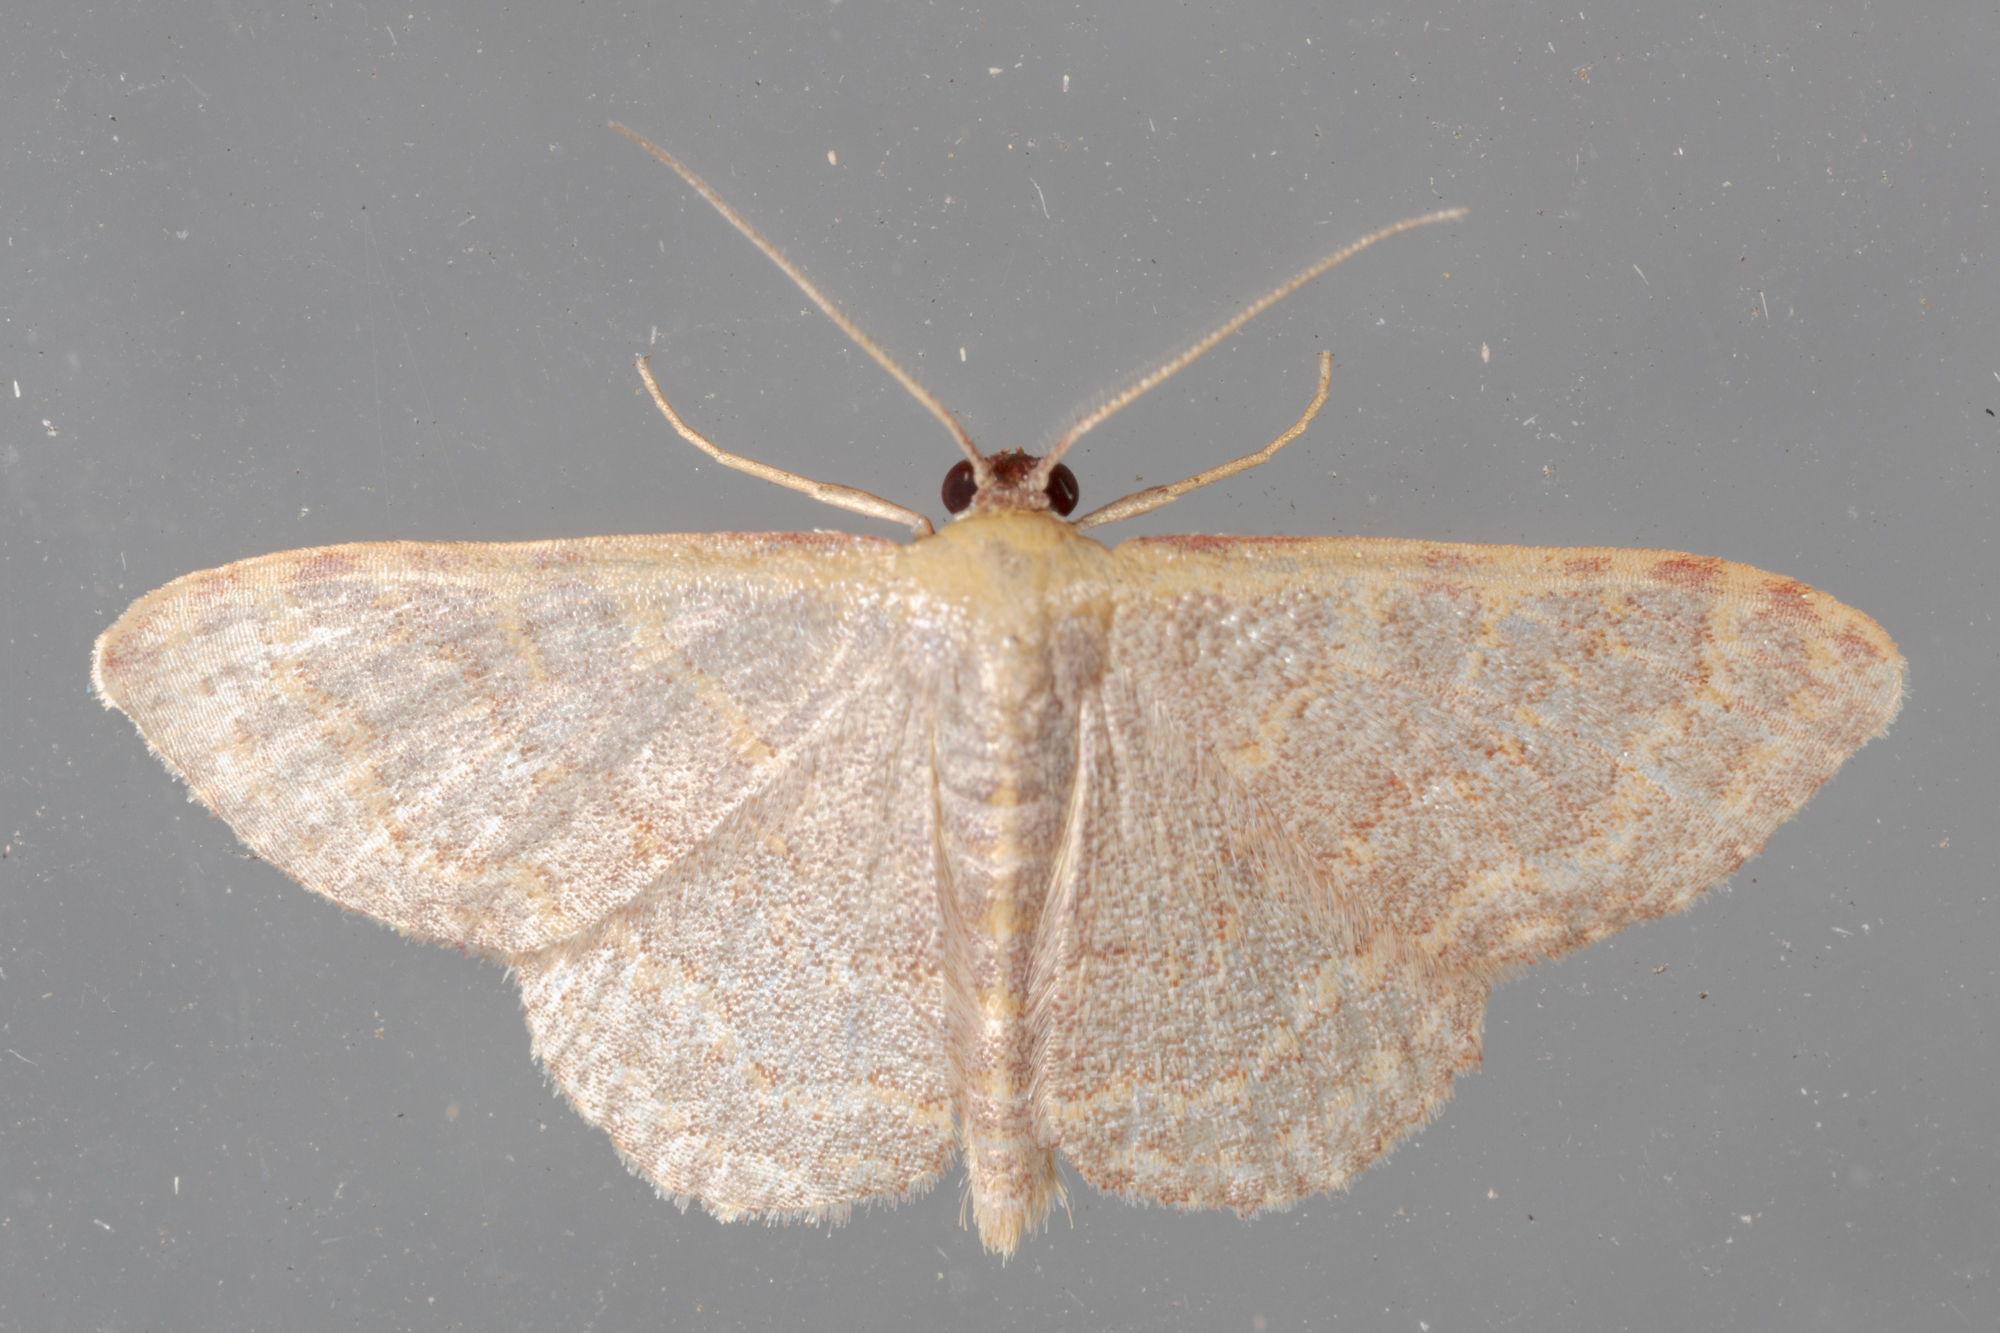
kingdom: Animalia
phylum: Arthropoda
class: Insecta
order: Lepidoptera
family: Geometridae
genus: Leptostales
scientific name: Leptostales pannaria
